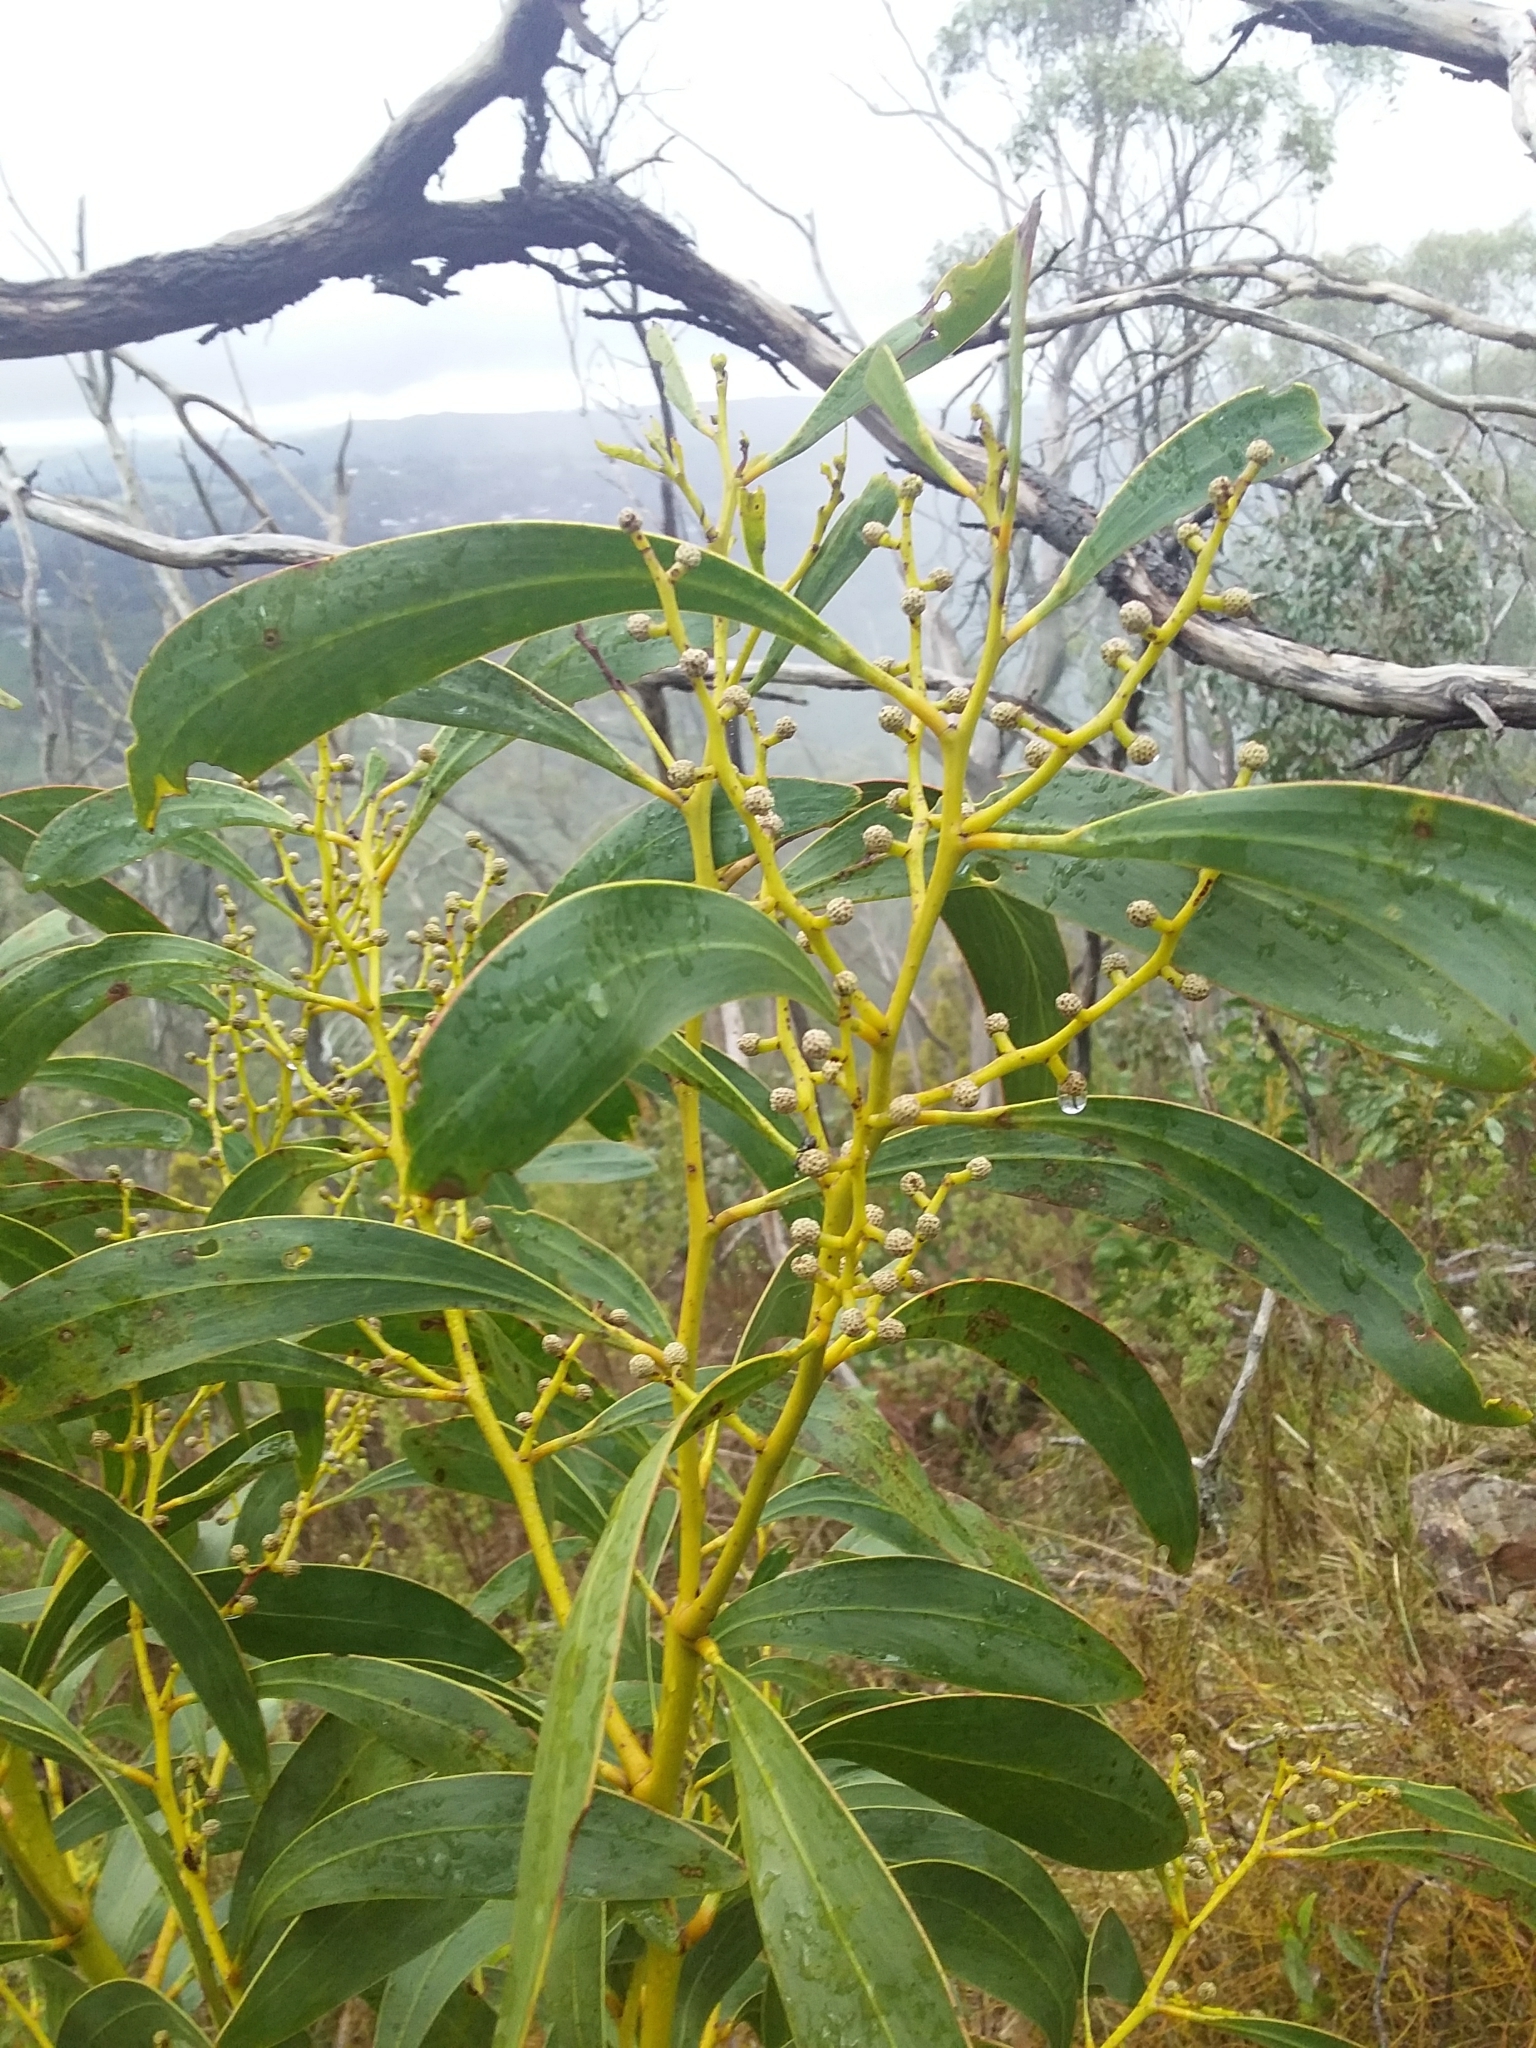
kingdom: Plantae
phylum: Tracheophyta
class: Magnoliopsida
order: Fabales
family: Fabaceae
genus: Acacia
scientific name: Acacia pycnantha
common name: Golden wattle
